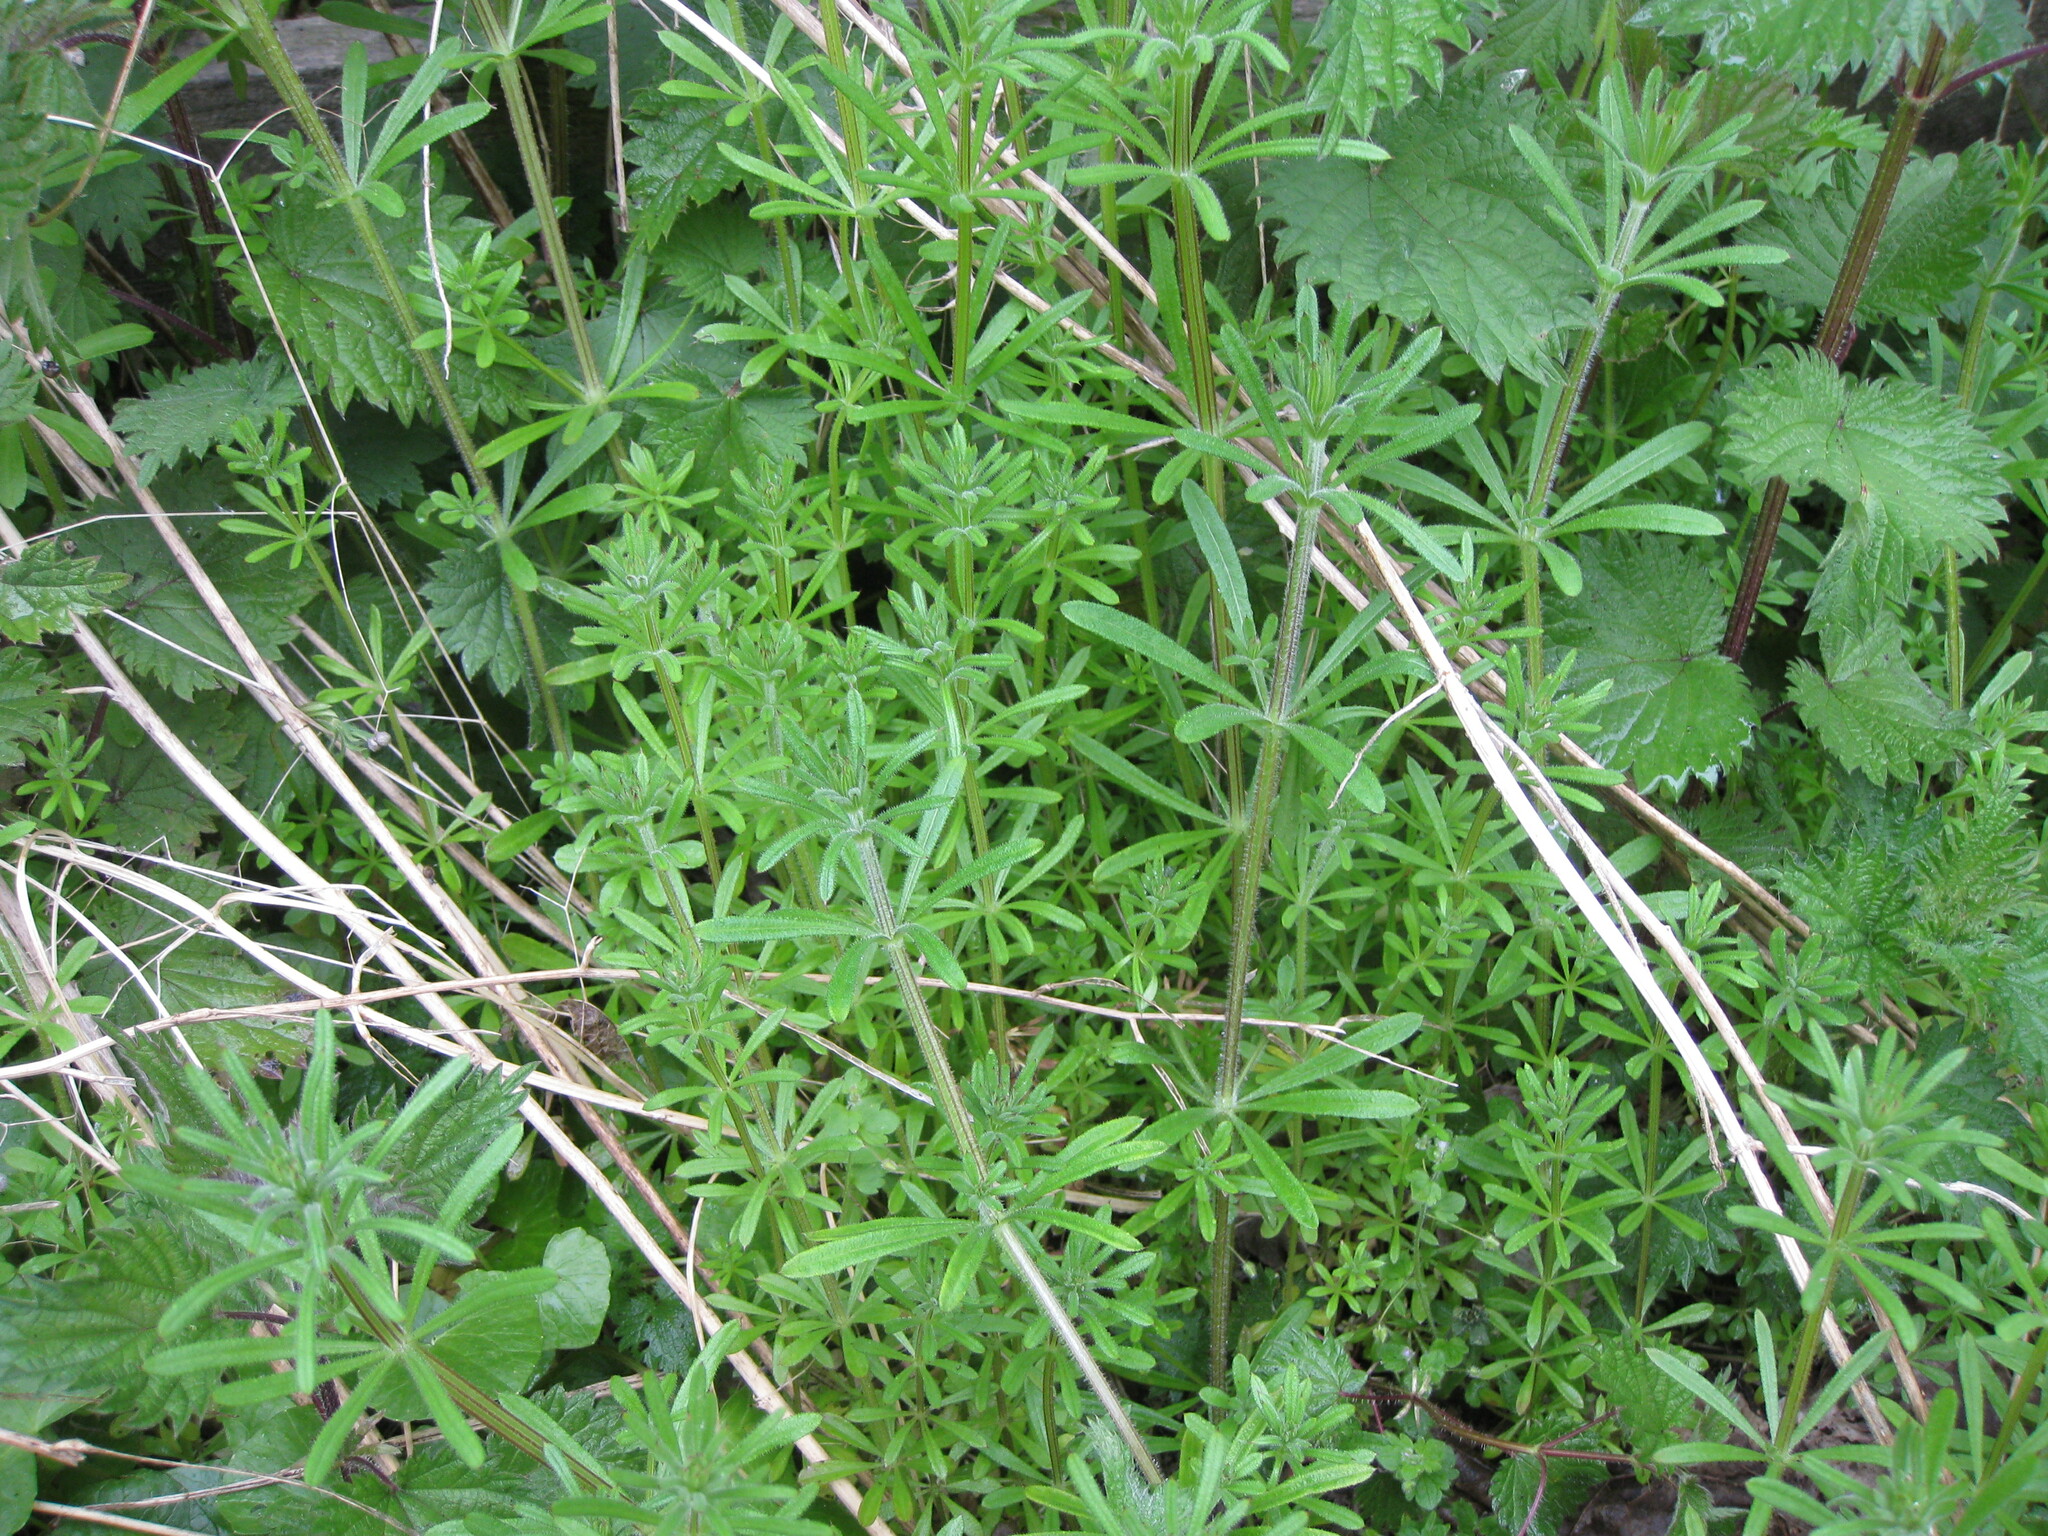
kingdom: Plantae
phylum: Tracheophyta
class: Magnoliopsida
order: Gentianales
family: Rubiaceae
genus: Galium
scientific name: Galium aparine
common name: Cleavers
